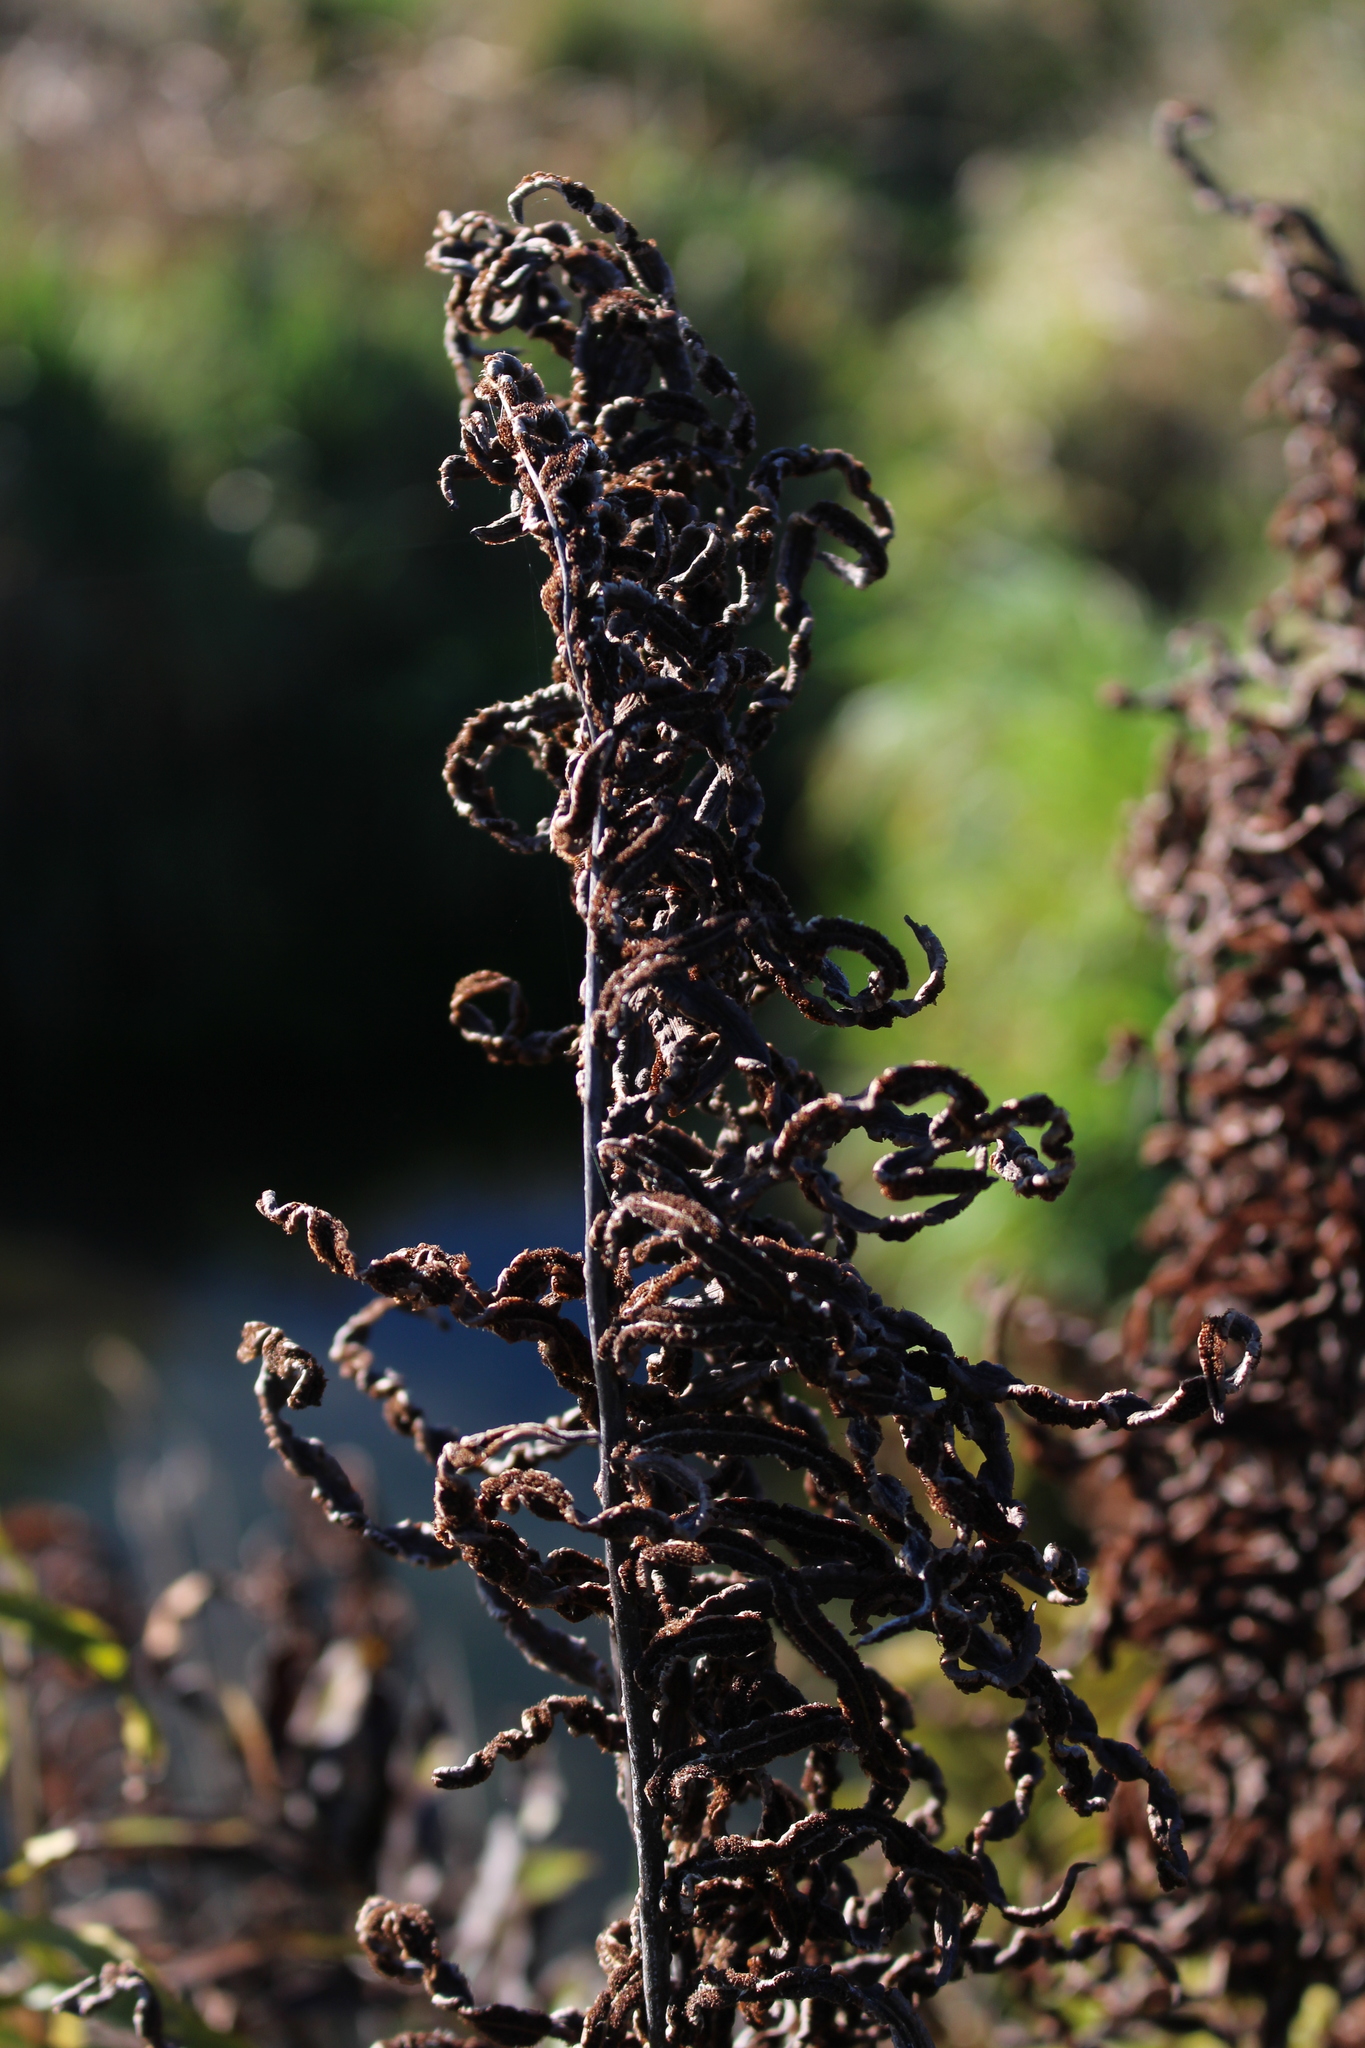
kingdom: Plantae
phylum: Tracheophyta
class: Polypodiopsida
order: Polypodiales
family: Blechnaceae
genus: Parablechnum
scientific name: Parablechnum minus
